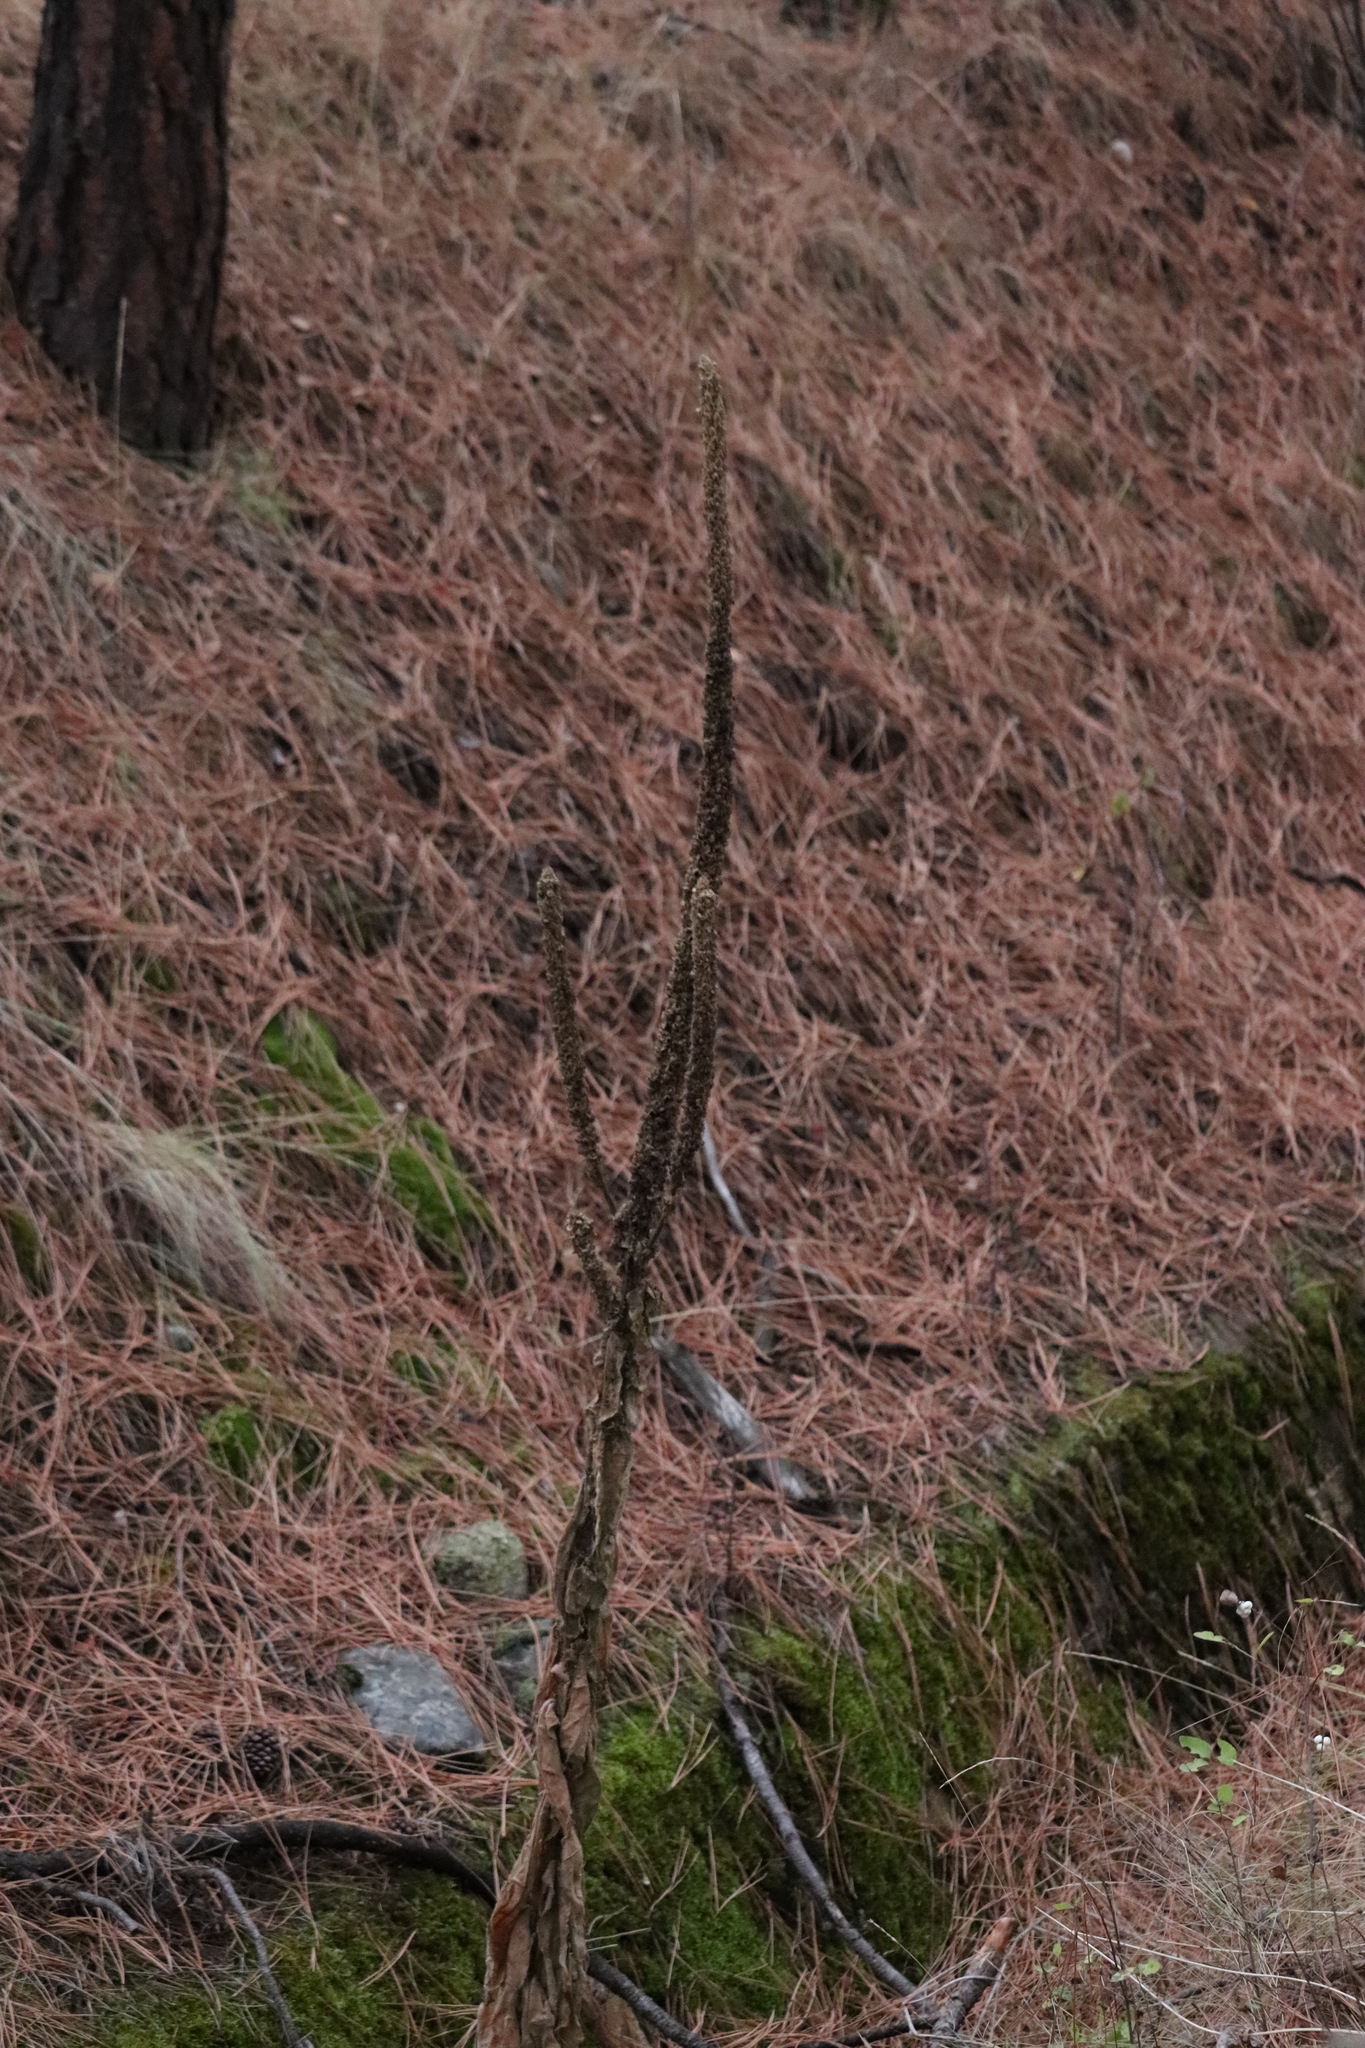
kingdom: Plantae
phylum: Tracheophyta
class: Magnoliopsida
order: Lamiales
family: Scrophulariaceae
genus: Verbascum
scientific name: Verbascum thapsus
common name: Common mullein
